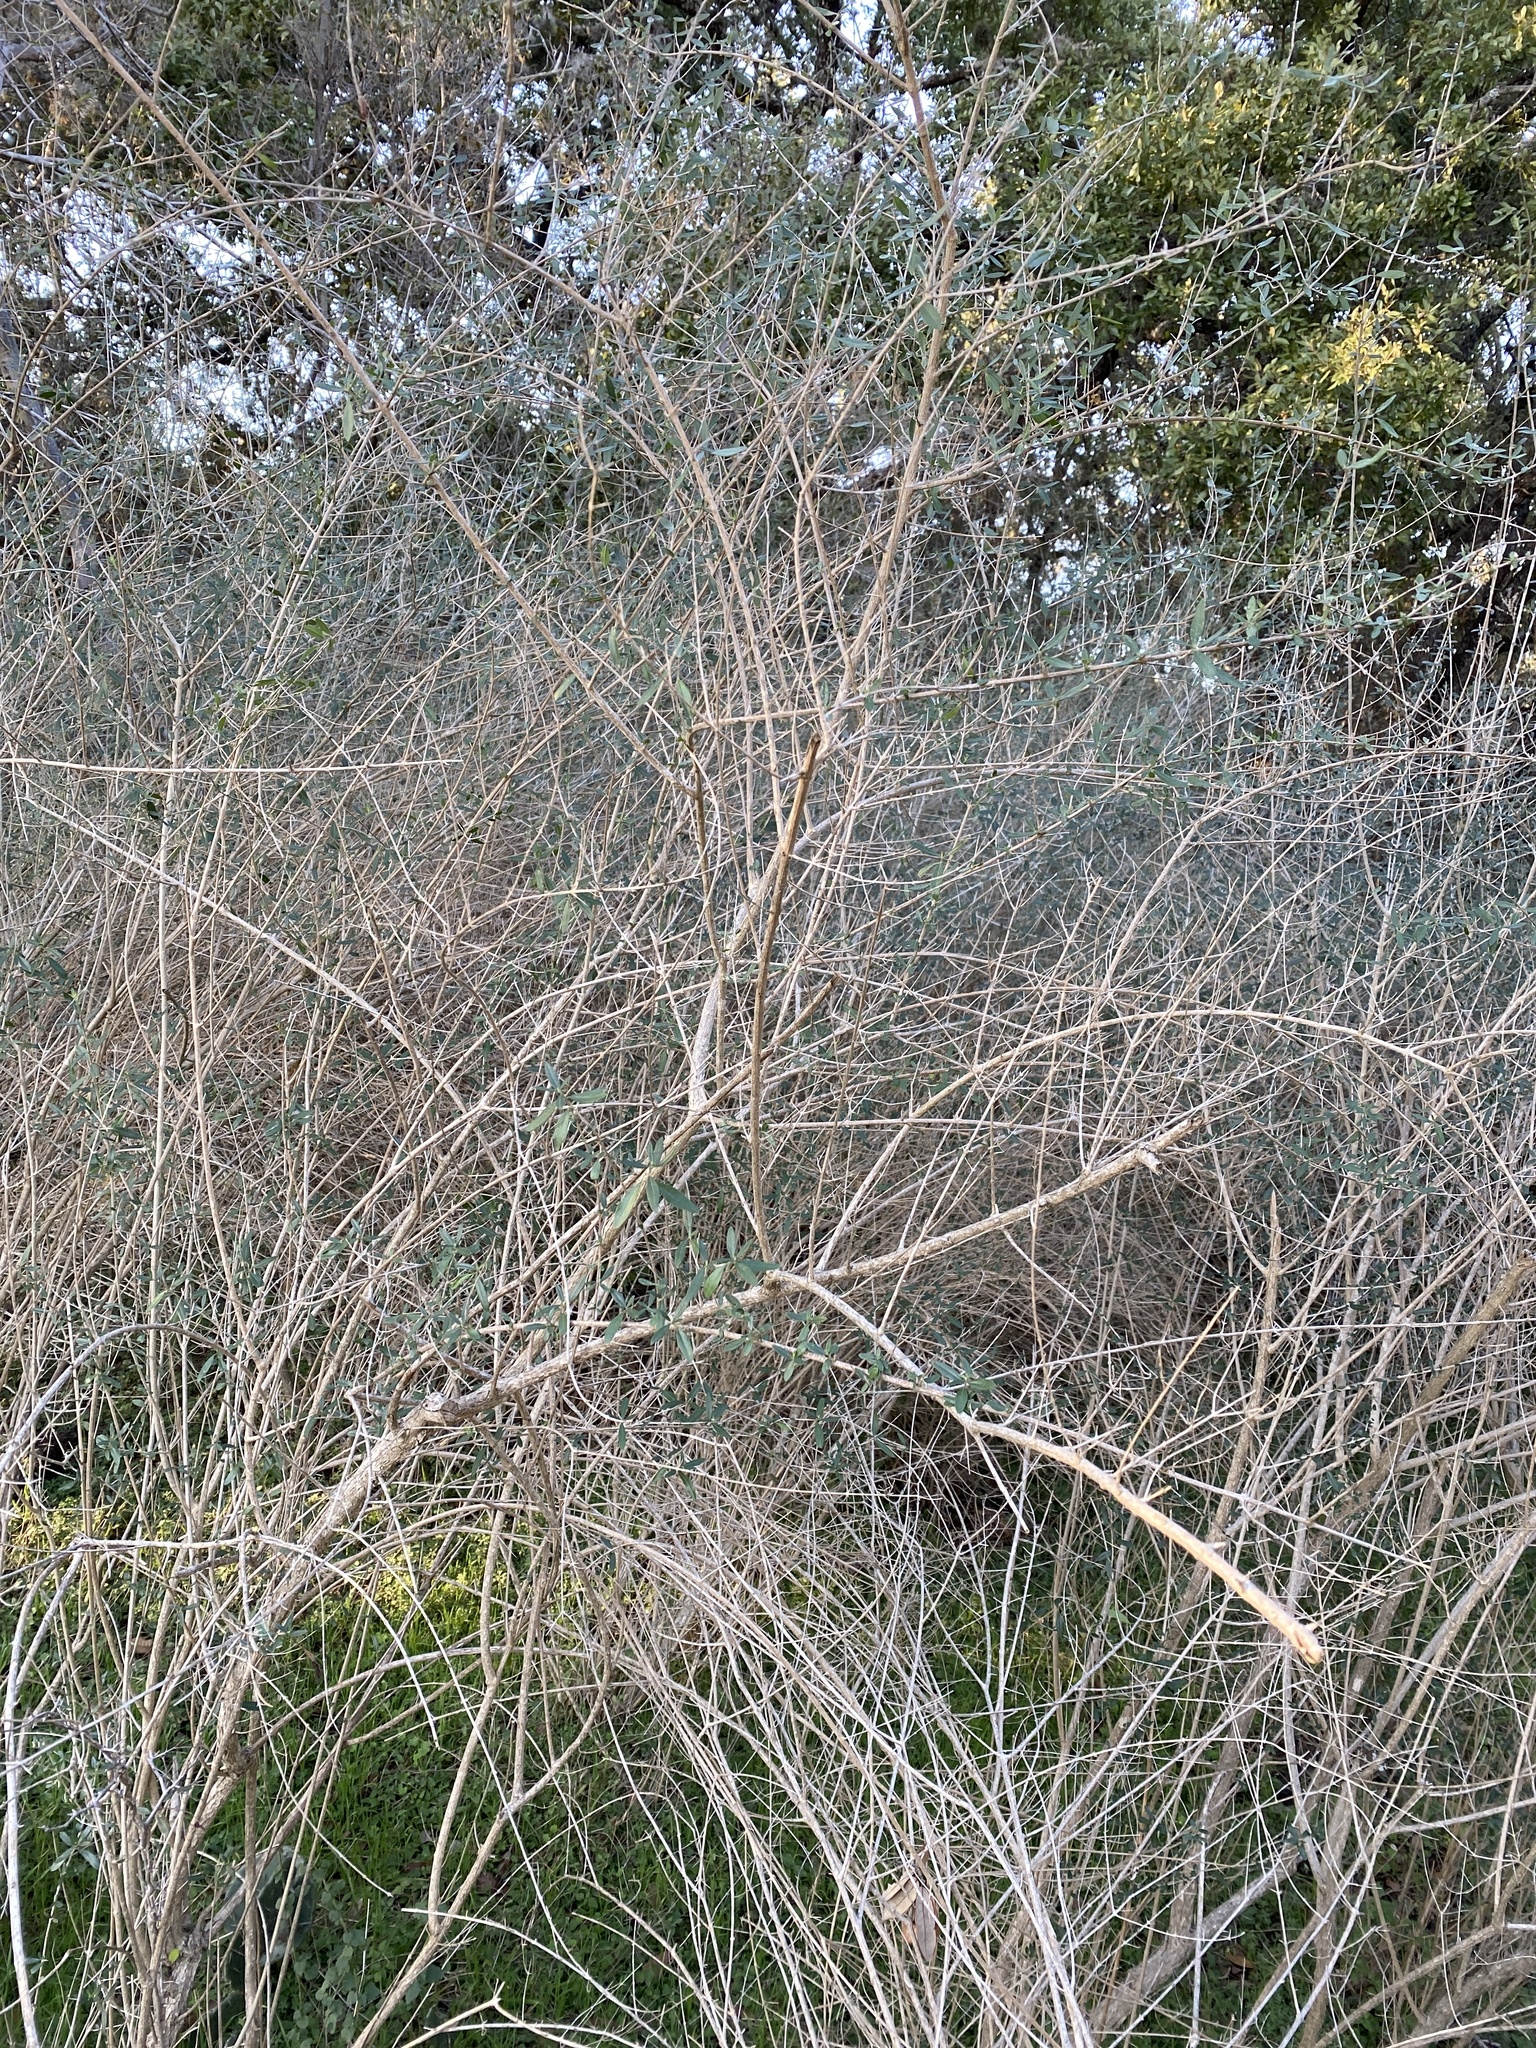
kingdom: Plantae
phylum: Tracheophyta
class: Magnoliopsida
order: Lamiales
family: Verbenaceae
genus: Aloysia
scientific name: Aloysia gratissima
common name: Common bee-brush
